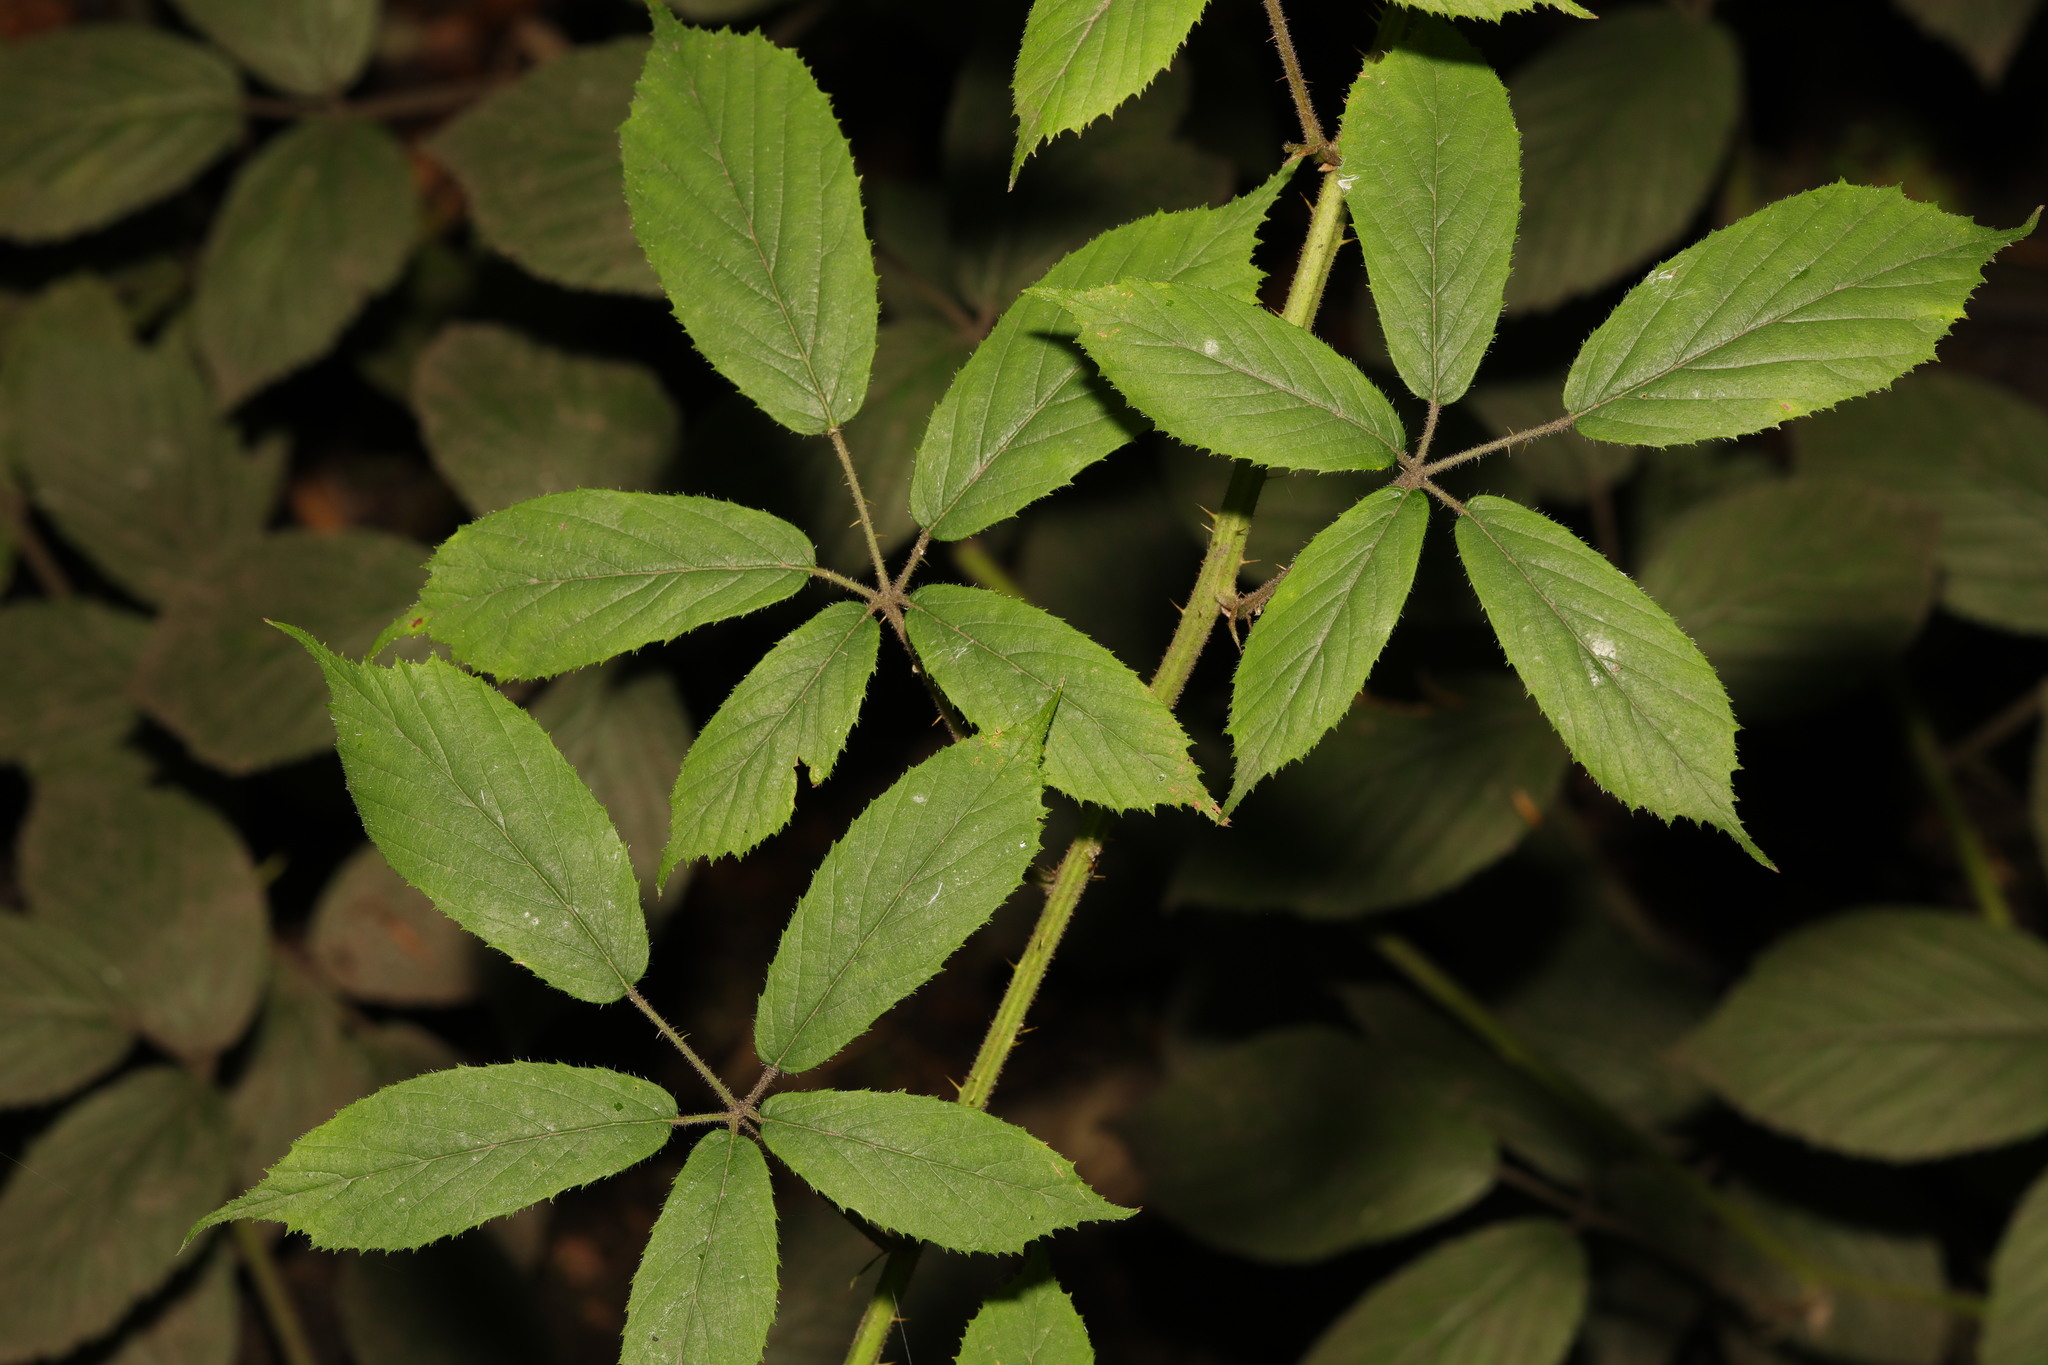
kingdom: Plantae
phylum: Tracheophyta
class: Magnoliopsida
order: Rosales
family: Rosaceae
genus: Rubus
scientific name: Rubus rufescens
